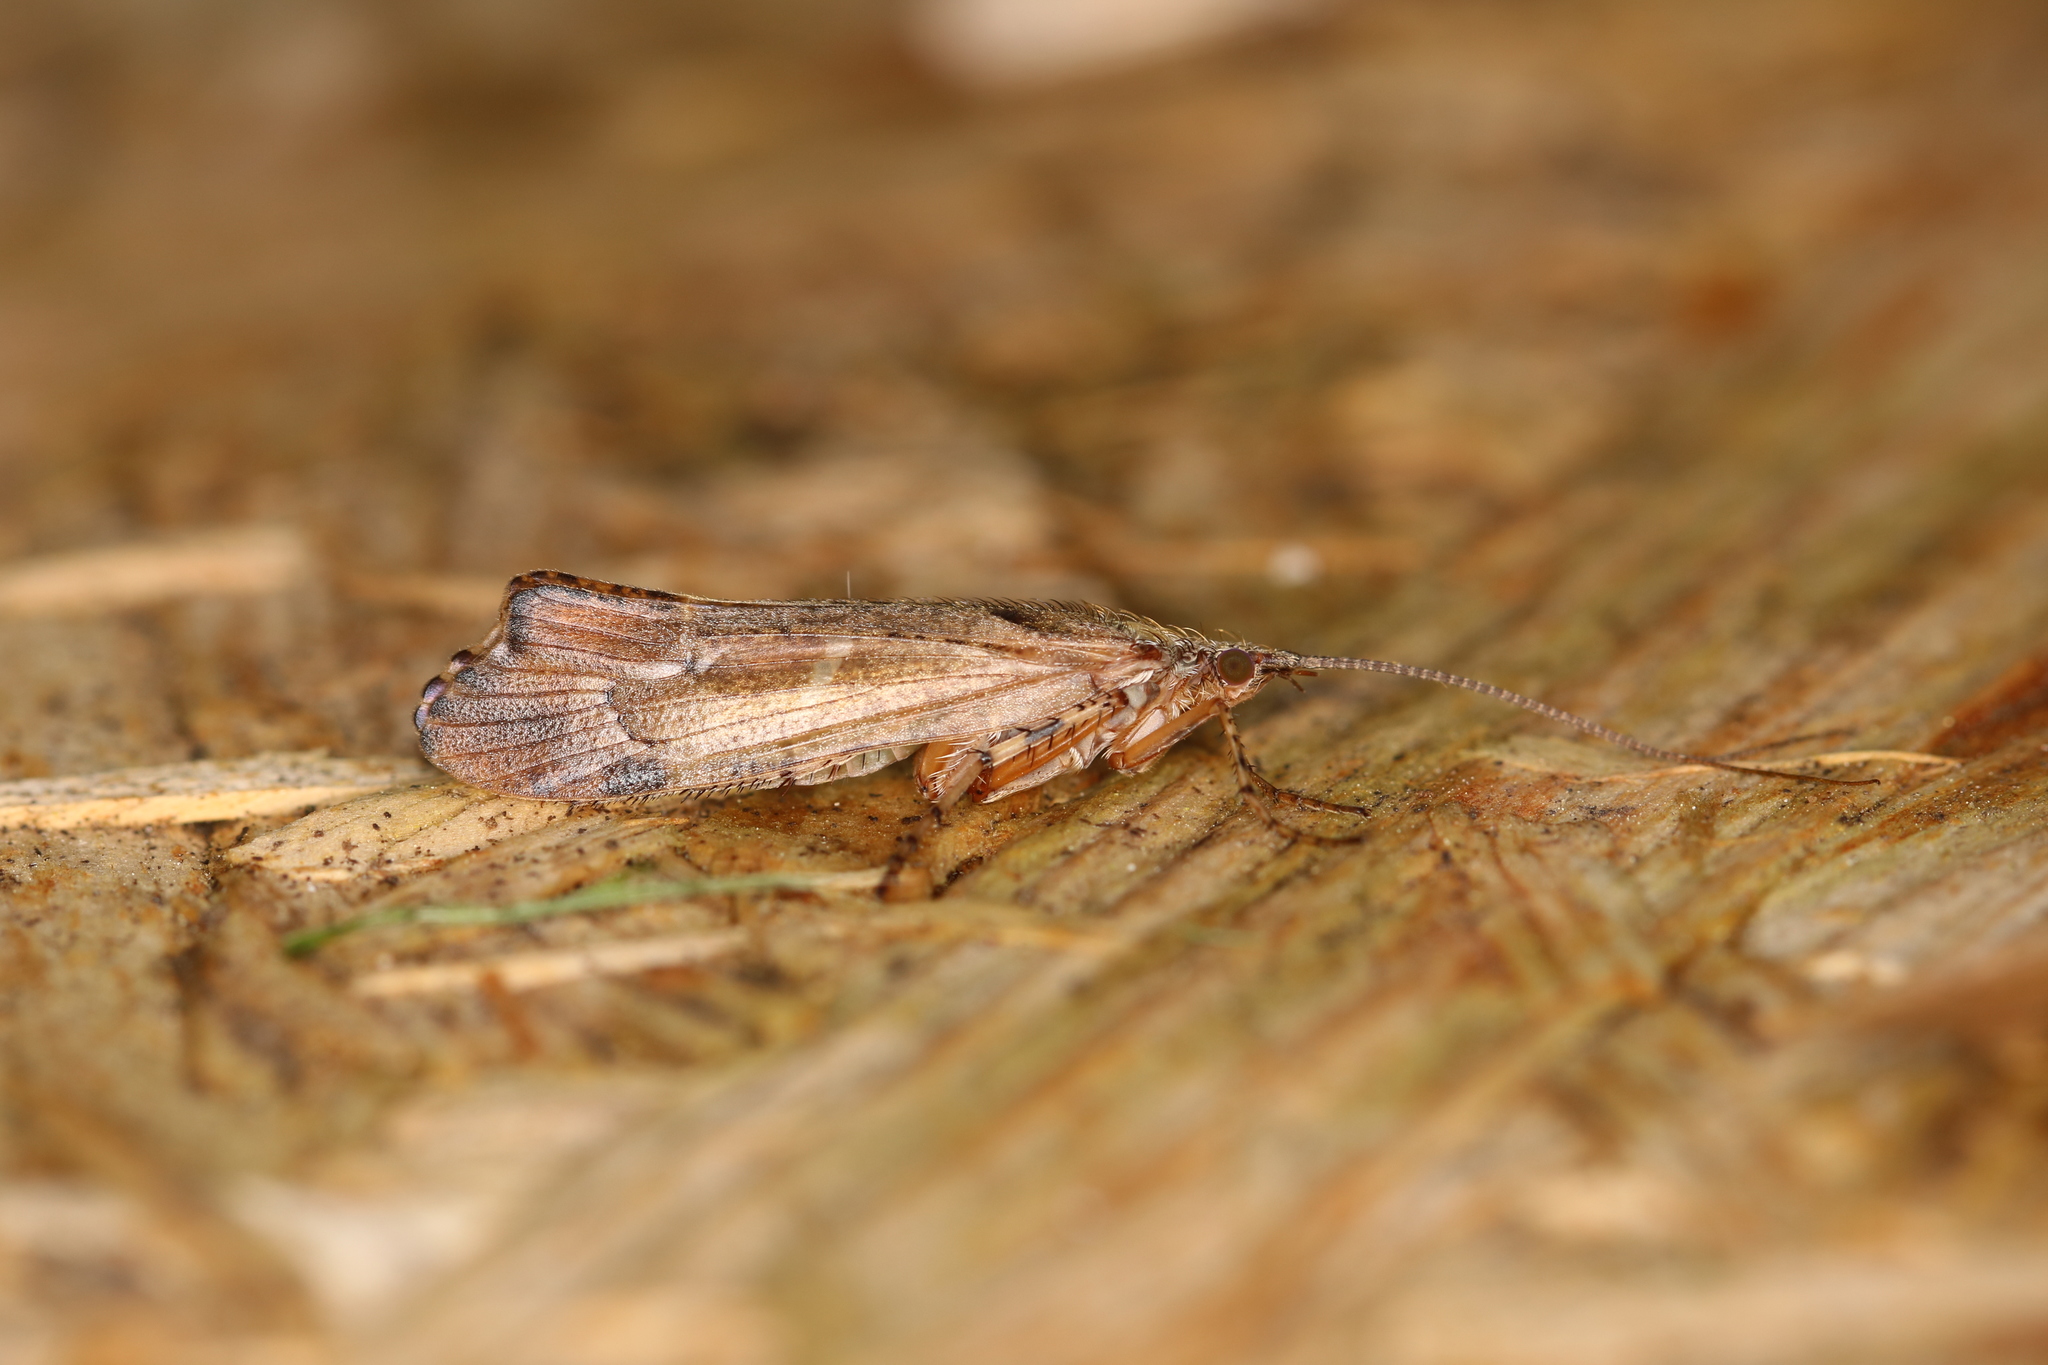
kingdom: Animalia
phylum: Arthropoda
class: Insecta
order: Trichoptera
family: Limnephilidae
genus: Glyphotaelius
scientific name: Glyphotaelius pellucidus
